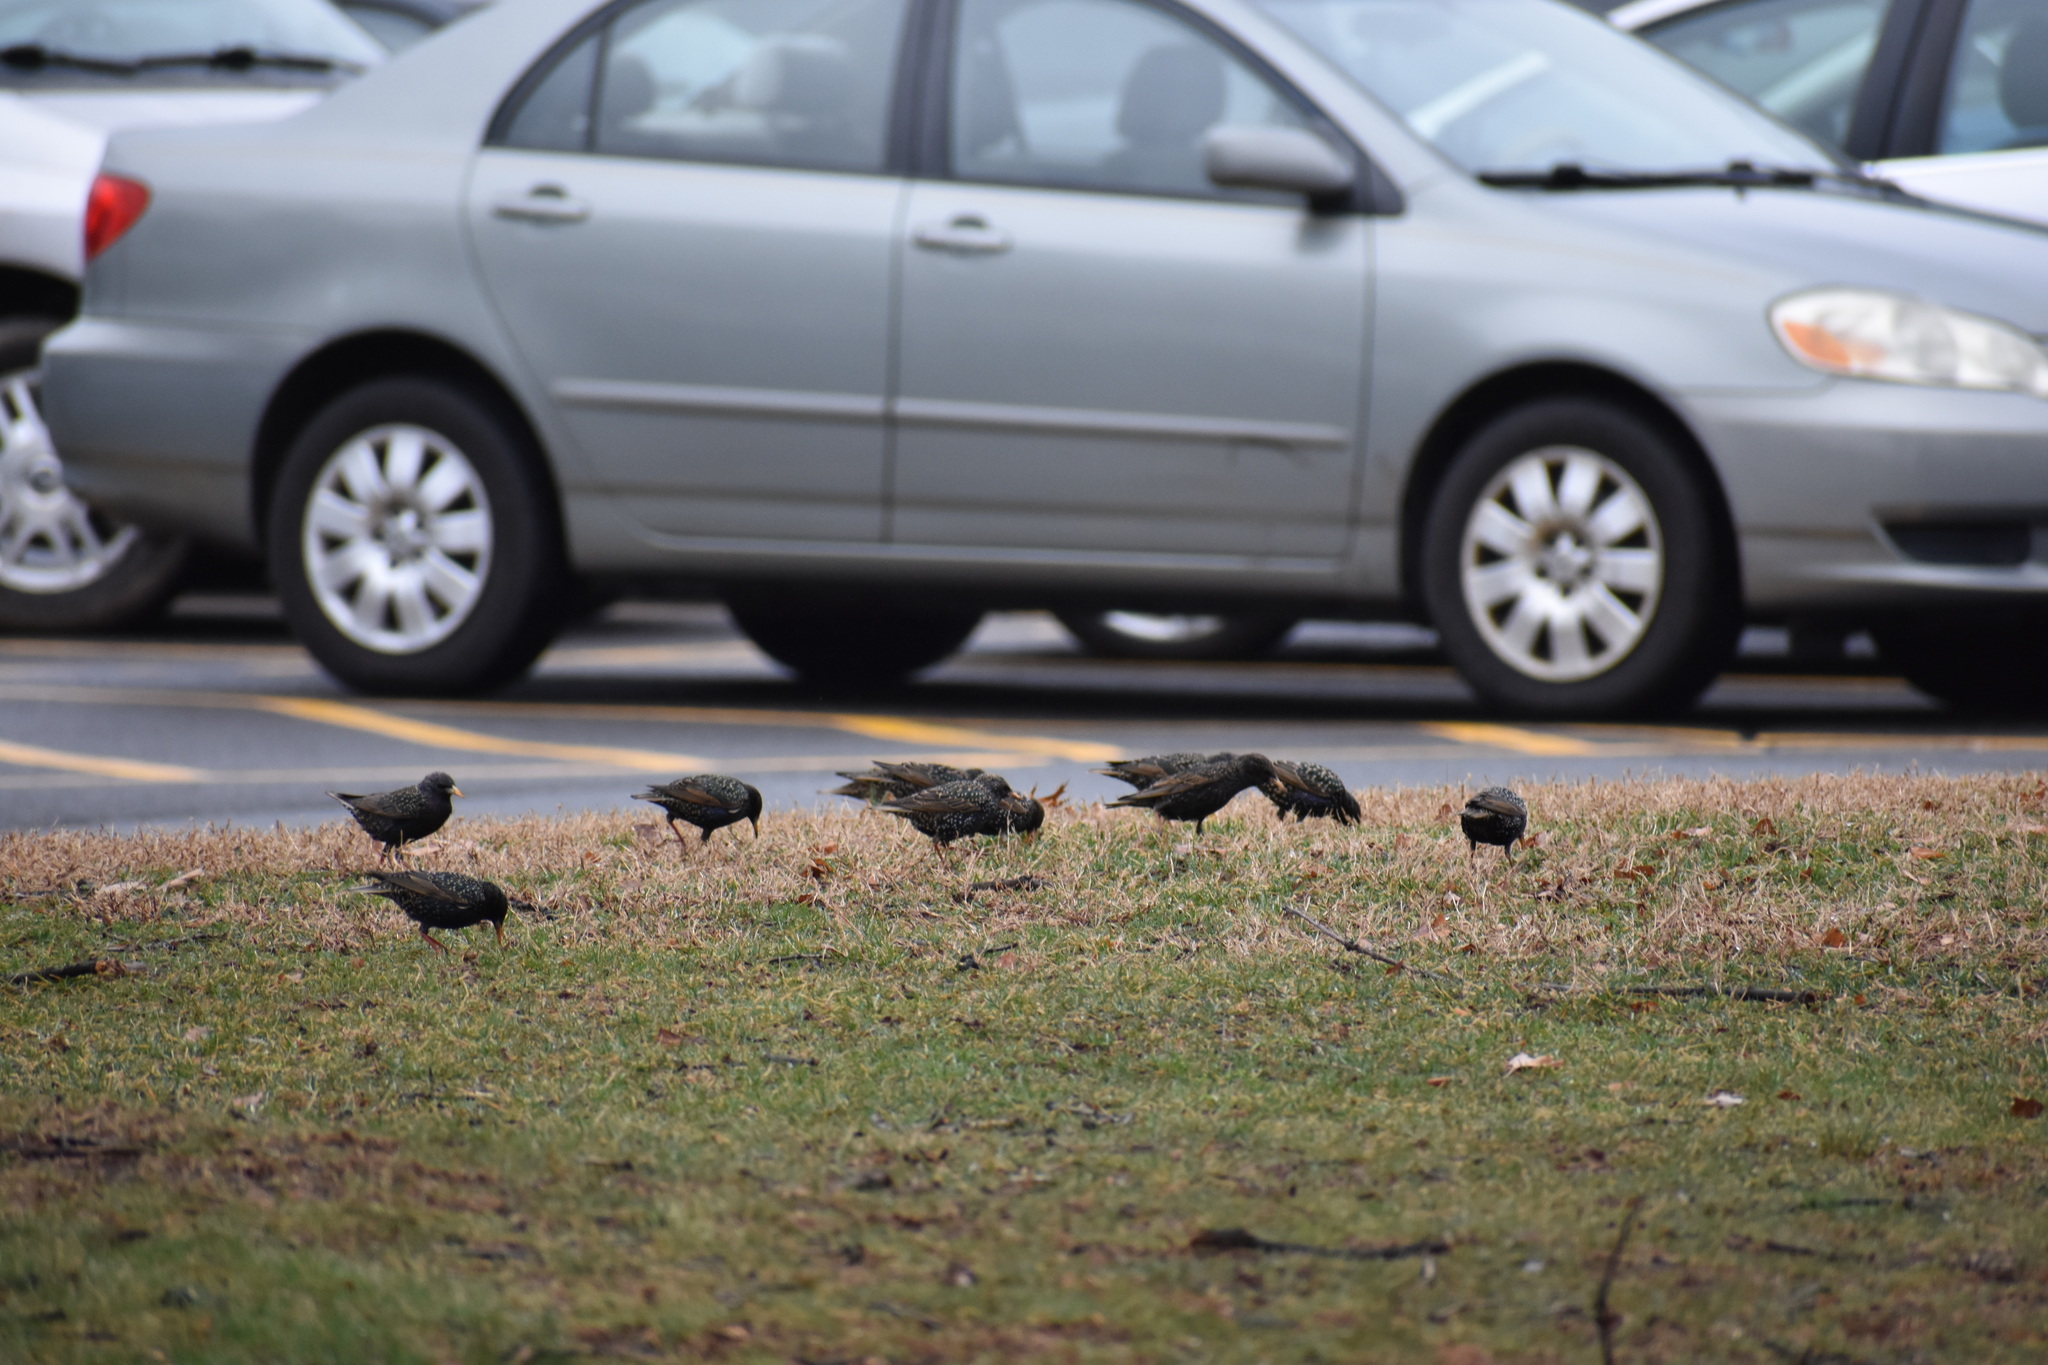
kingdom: Animalia
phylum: Chordata
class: Aves
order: Passeriformes
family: Sturnidae
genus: Sturnus
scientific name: Sturnus vulgaris
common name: Common starling
